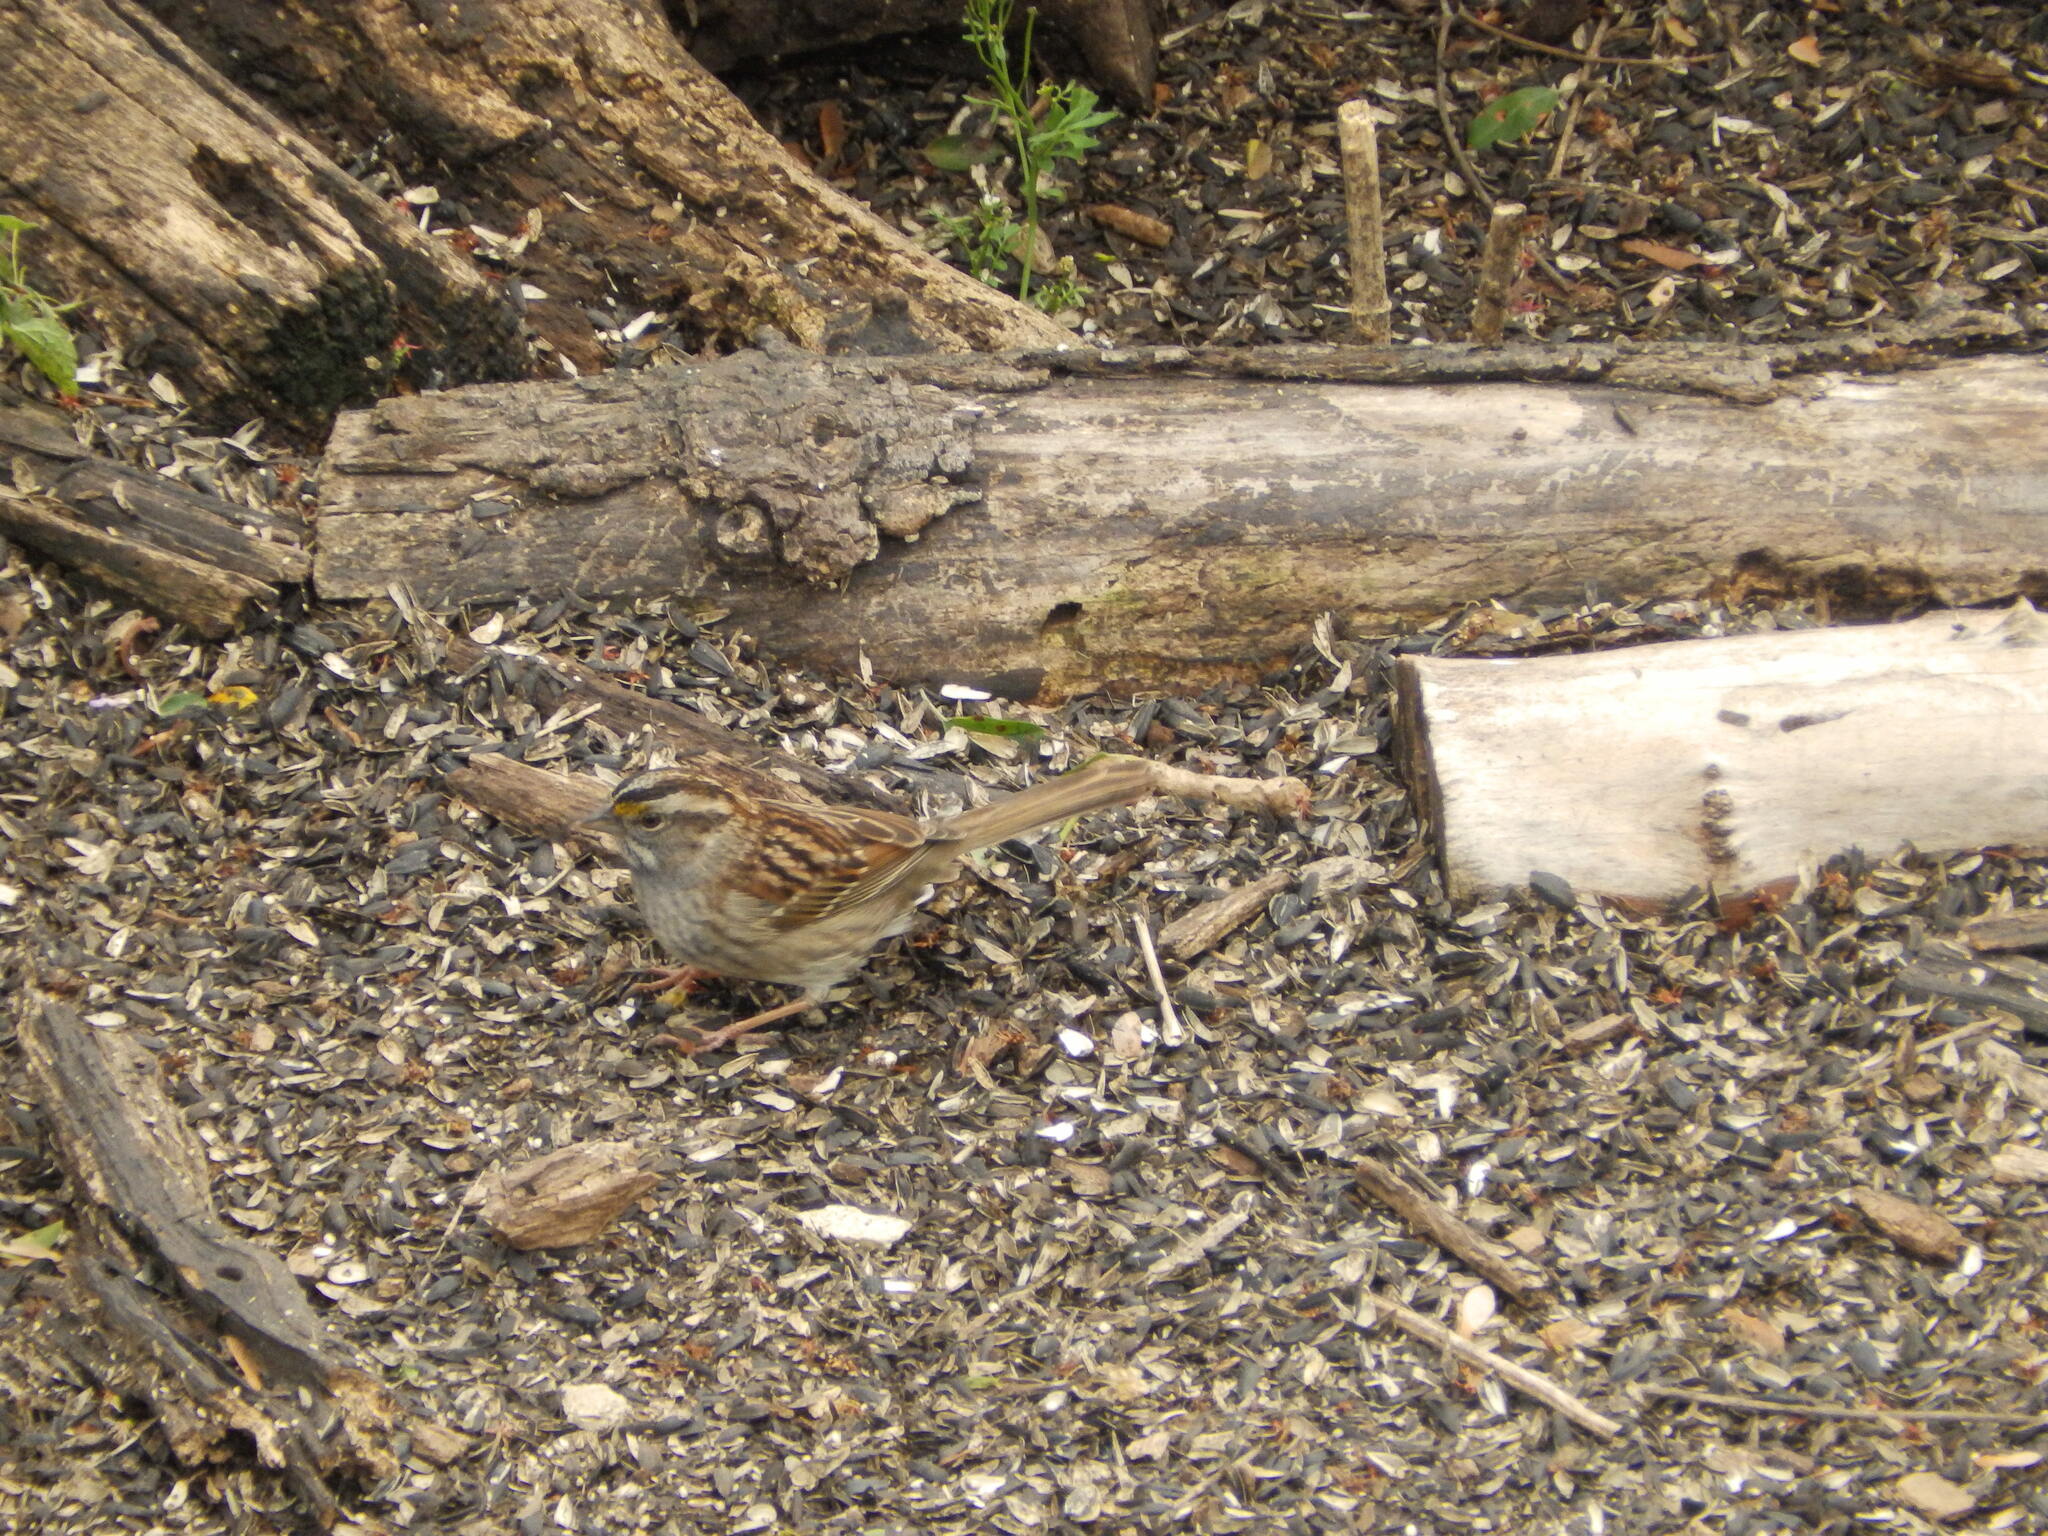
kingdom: Animalia
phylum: Chordata
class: Aves
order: Passeriformes
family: Passerellidae
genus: Zonotrichia
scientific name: Zonotrichia albicollis
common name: White-throated sparrow
